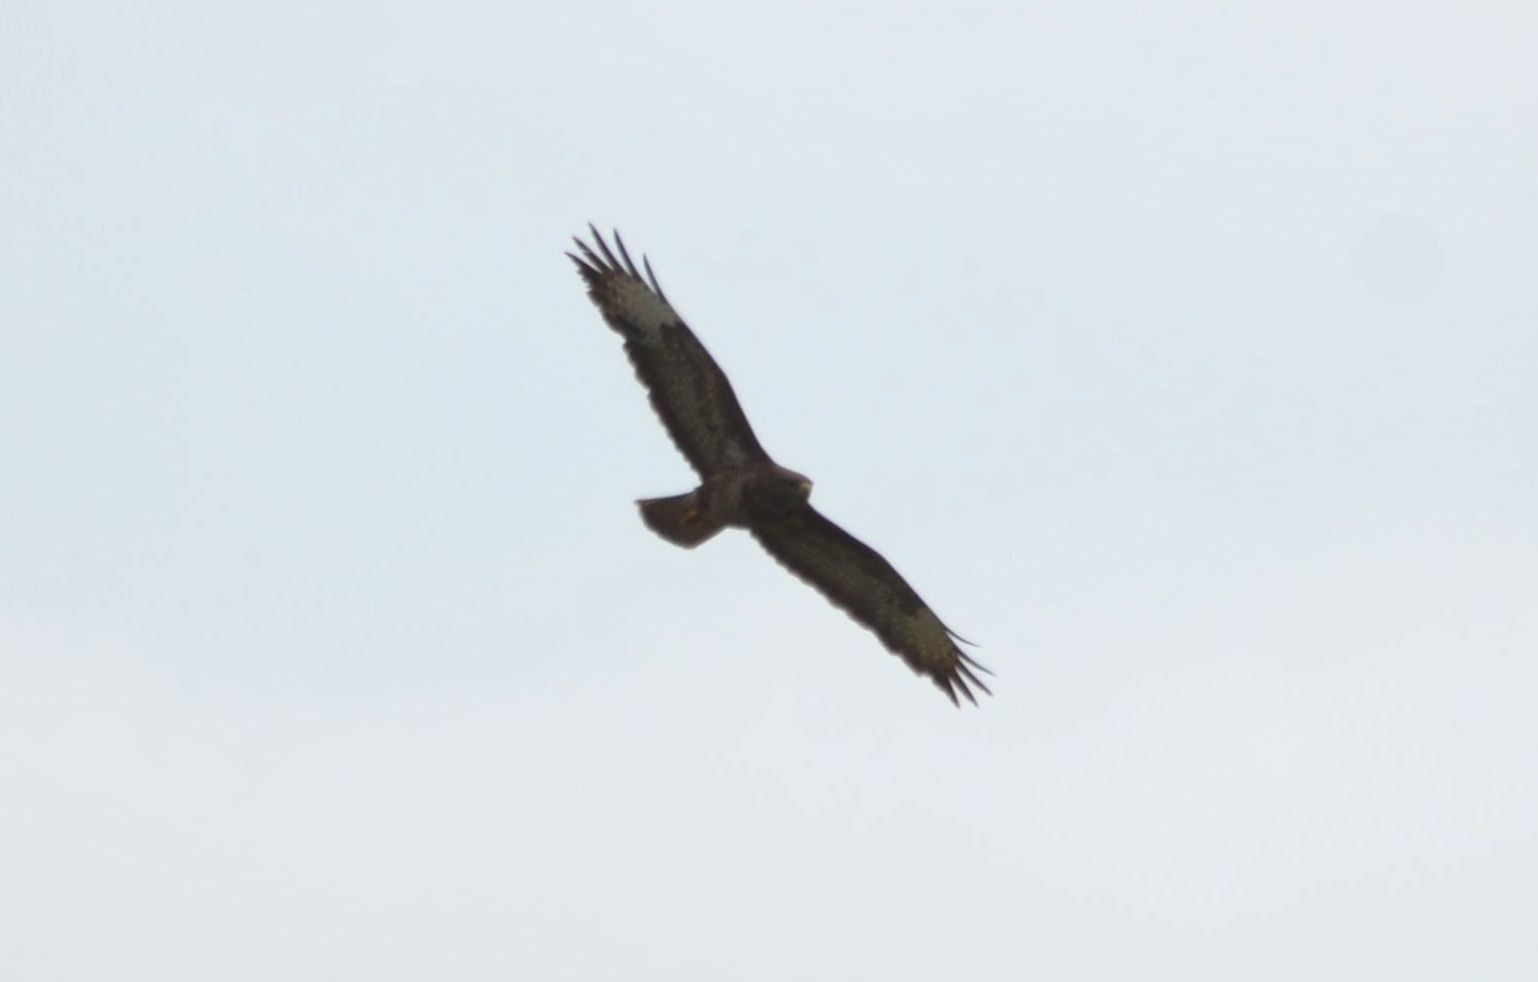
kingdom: Animalia
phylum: Chordata
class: Aves
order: Accipitriformes
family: Accipitridae
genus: Buteo
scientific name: Buteo buteo
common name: Common buzzard
